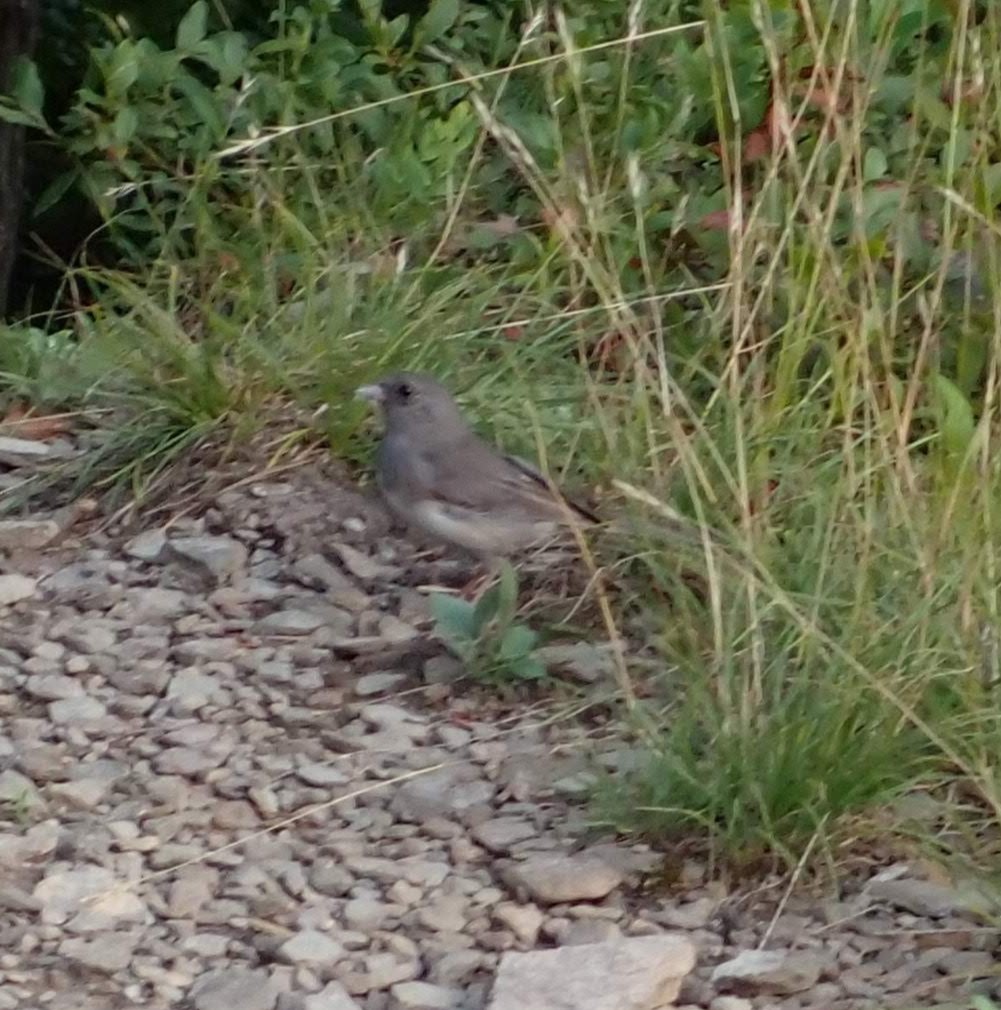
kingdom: Animalia
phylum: Chordata
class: Aves
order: Passeriformes
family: Passerellidae
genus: Junco
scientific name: Junco hyemalis
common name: Dark-eyed junco
